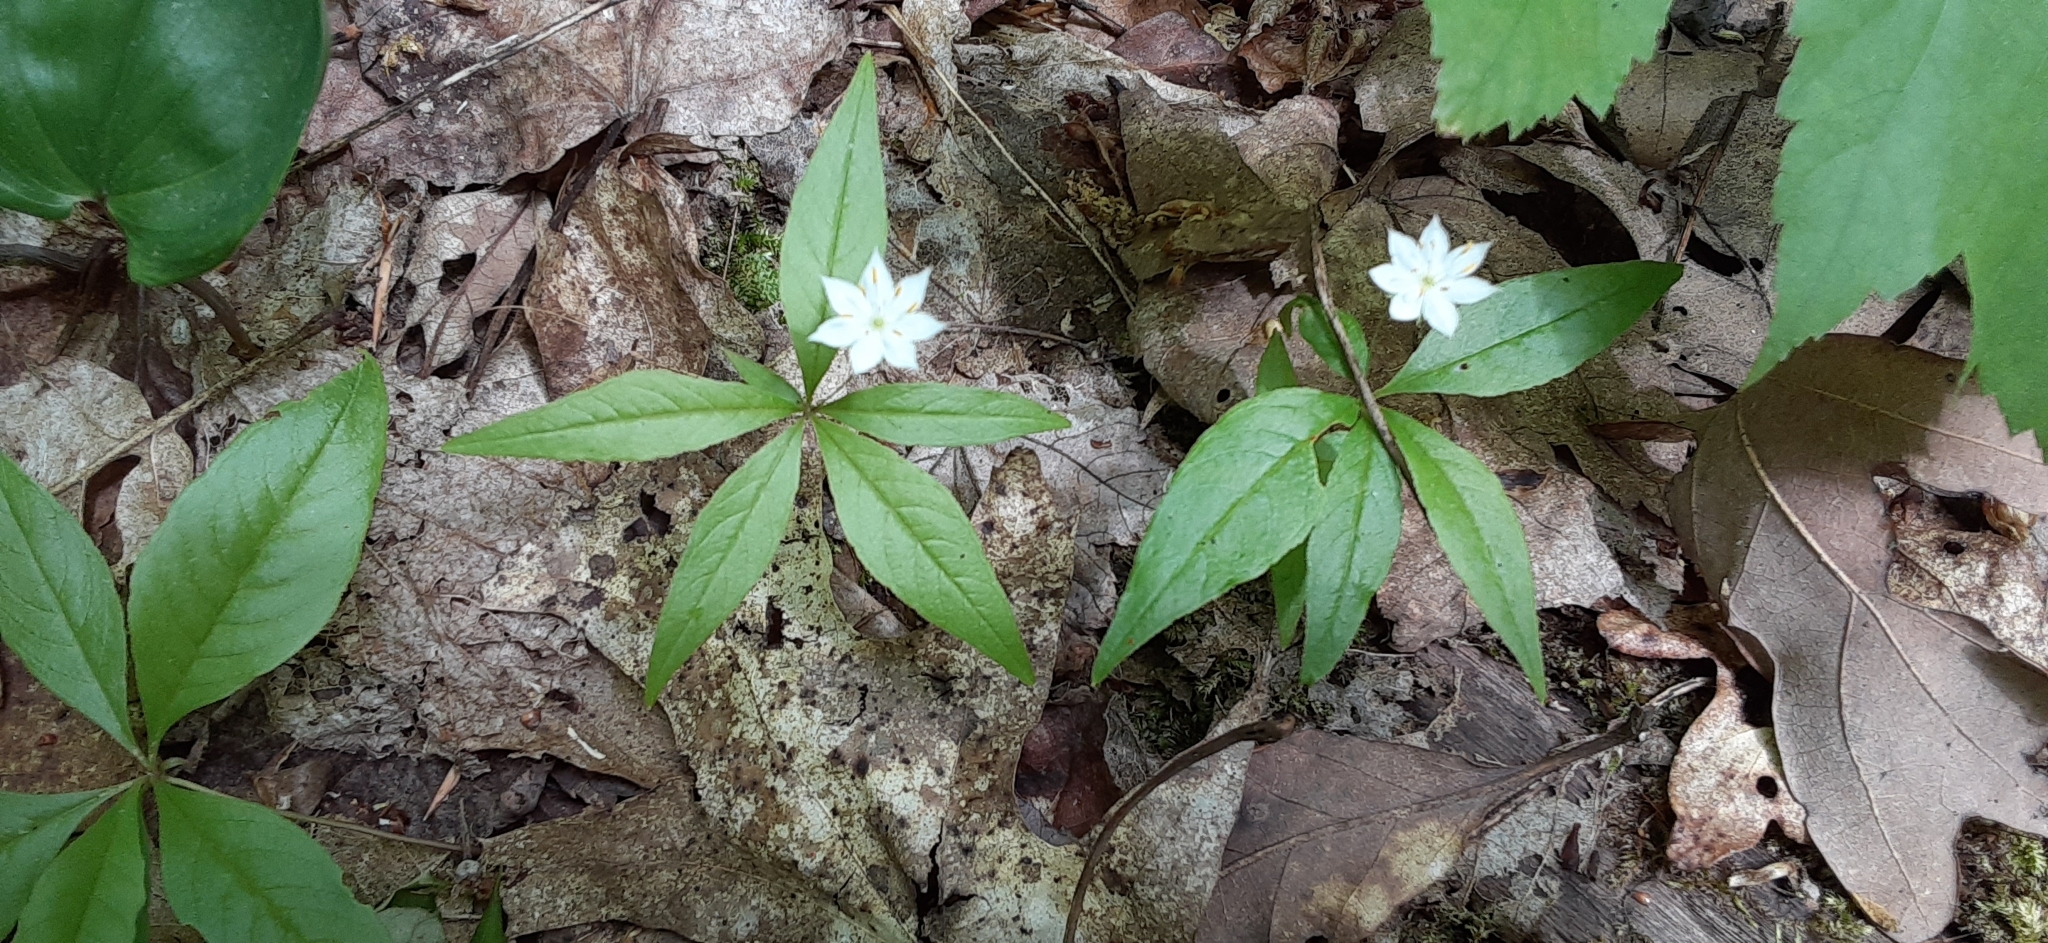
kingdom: Plantae
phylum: Tracheophyta
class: Magnoliopsida
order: Ericales
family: Primulaceae
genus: Lysimachia
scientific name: Lysimachia borealis
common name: American starflower
